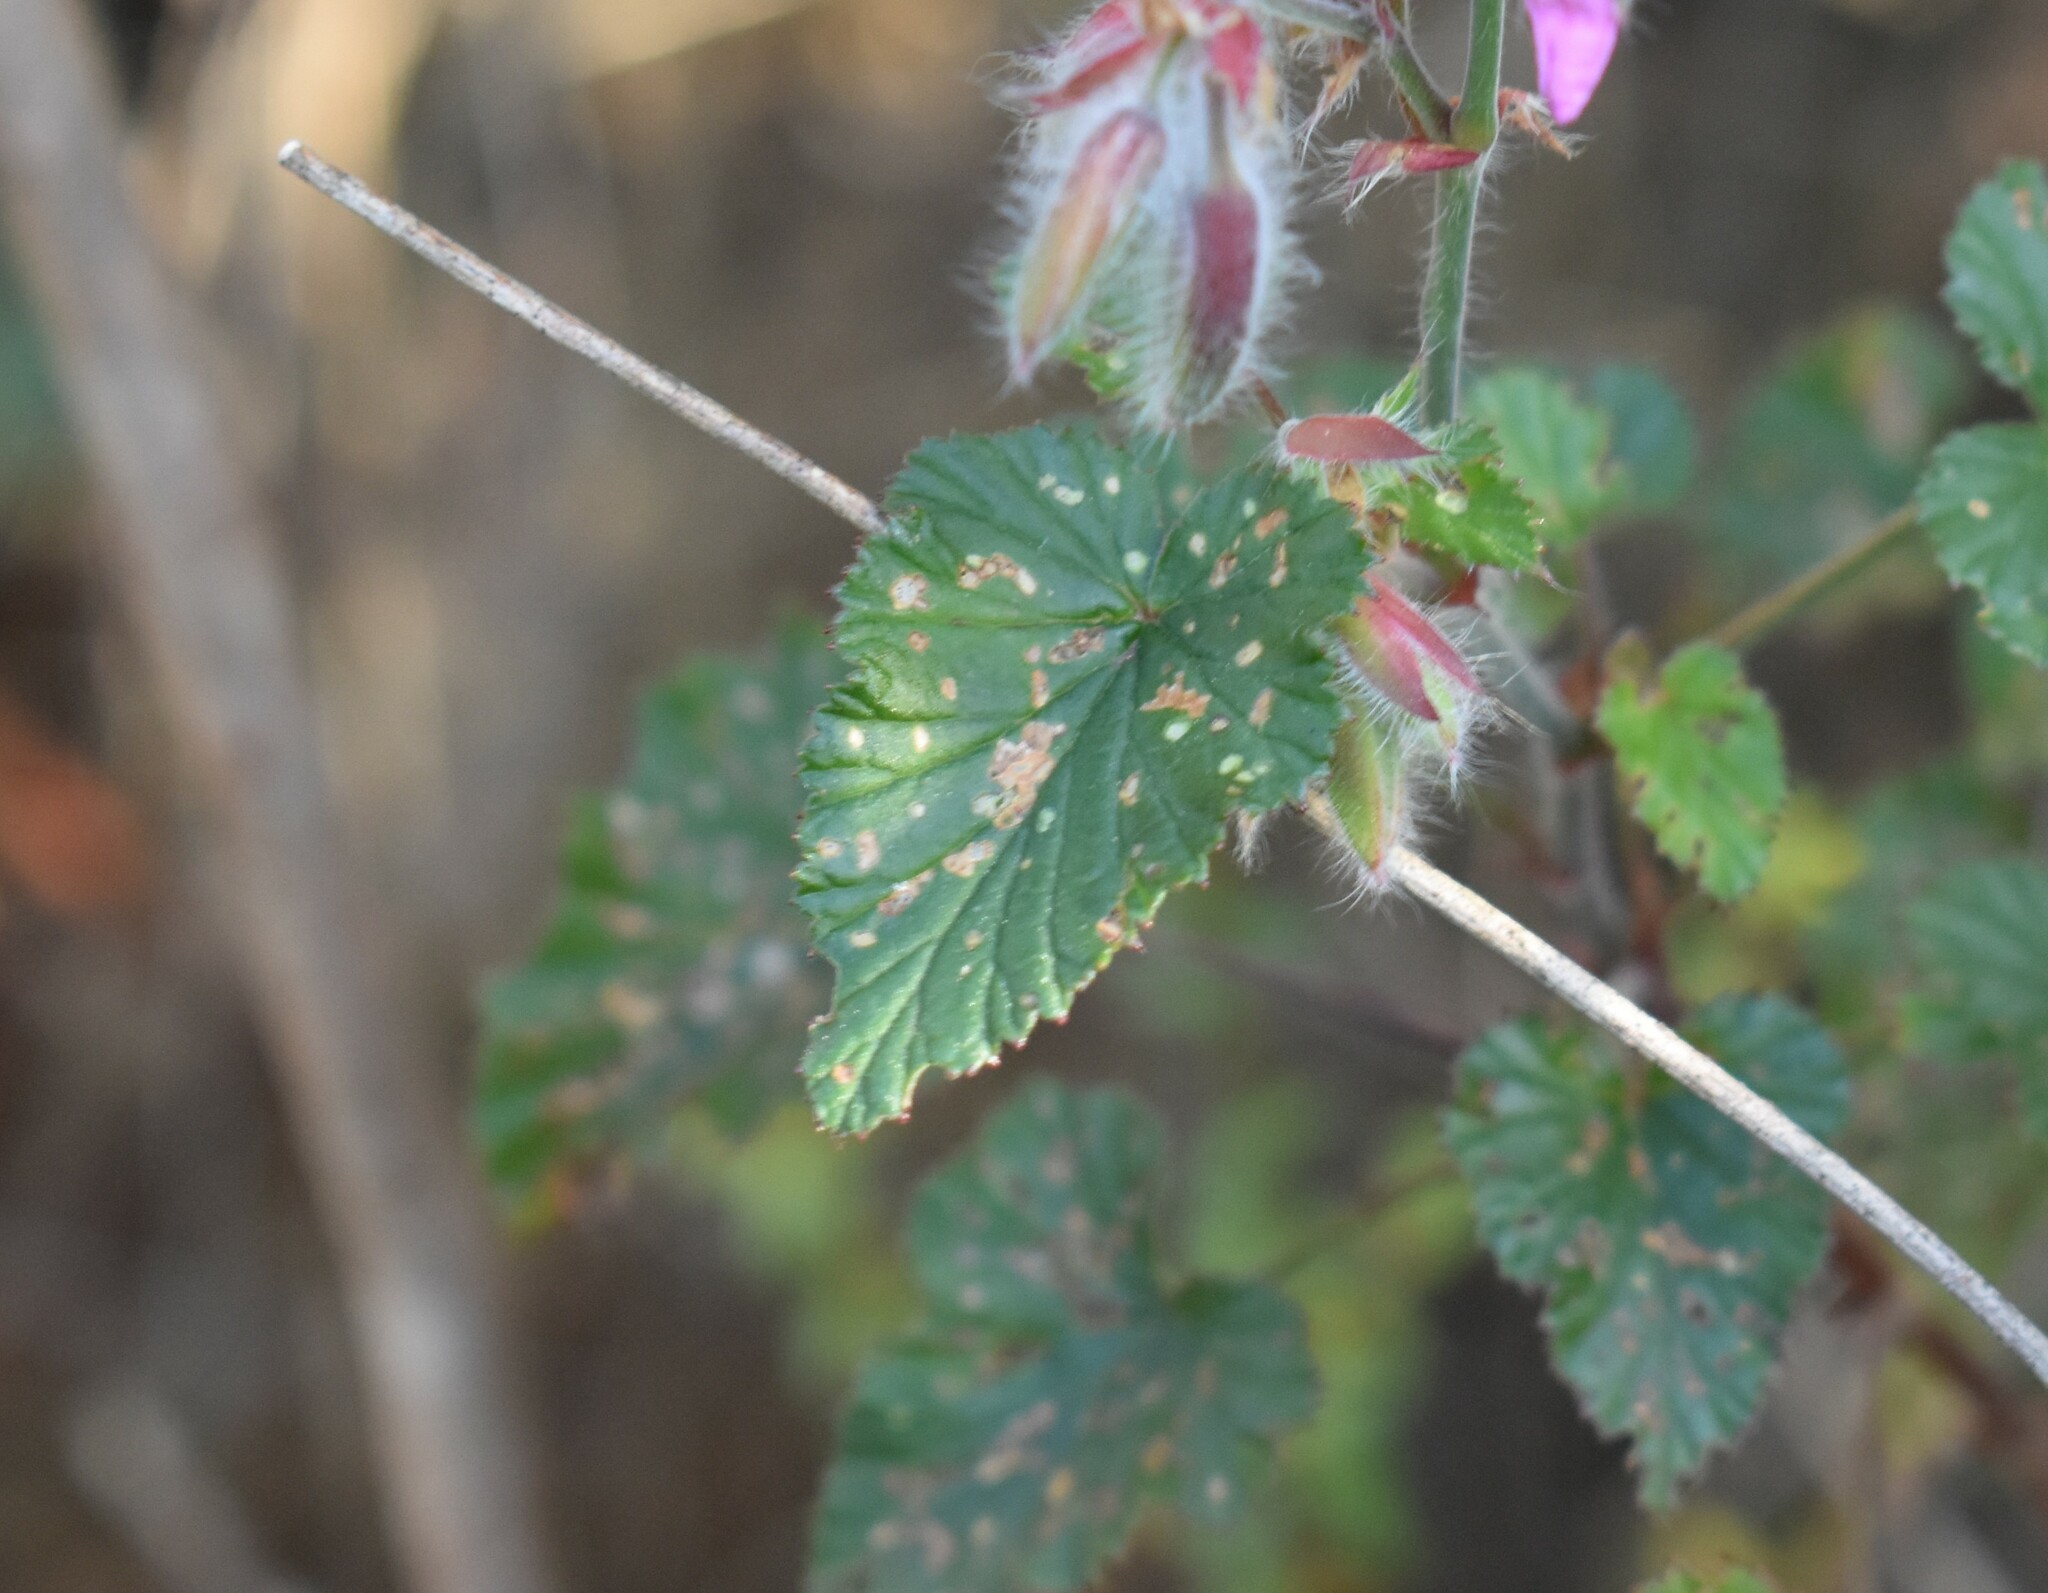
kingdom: Plantae
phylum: Tracheophyta
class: Magnoliopsida
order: Geraniales
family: Geraniaceae
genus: Pelargonium
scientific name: Pelargonium cordifolium
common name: Heart-leaf pelargonium
